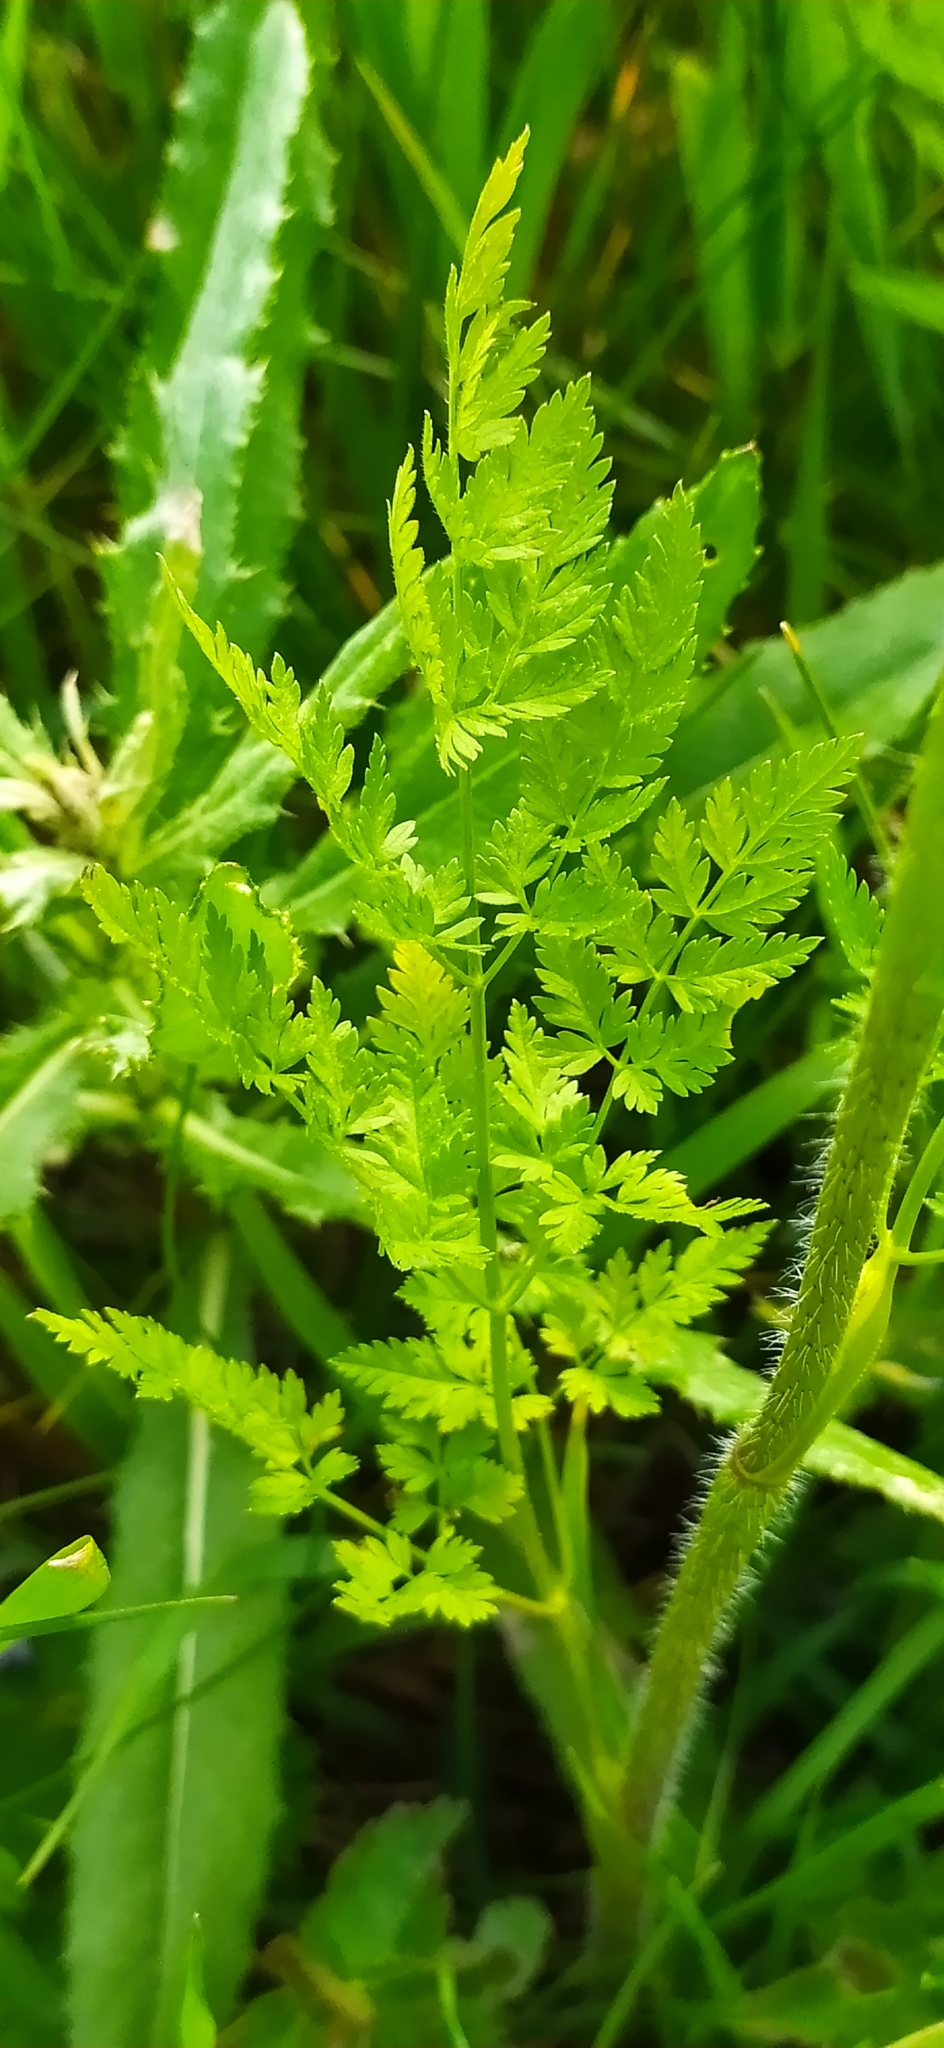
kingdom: Plantae
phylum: Tracheophyta
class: Magnoliopsida
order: Apiales
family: Apiaceae
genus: Chaerophyllum
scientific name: Chaerophyllum prescottii
